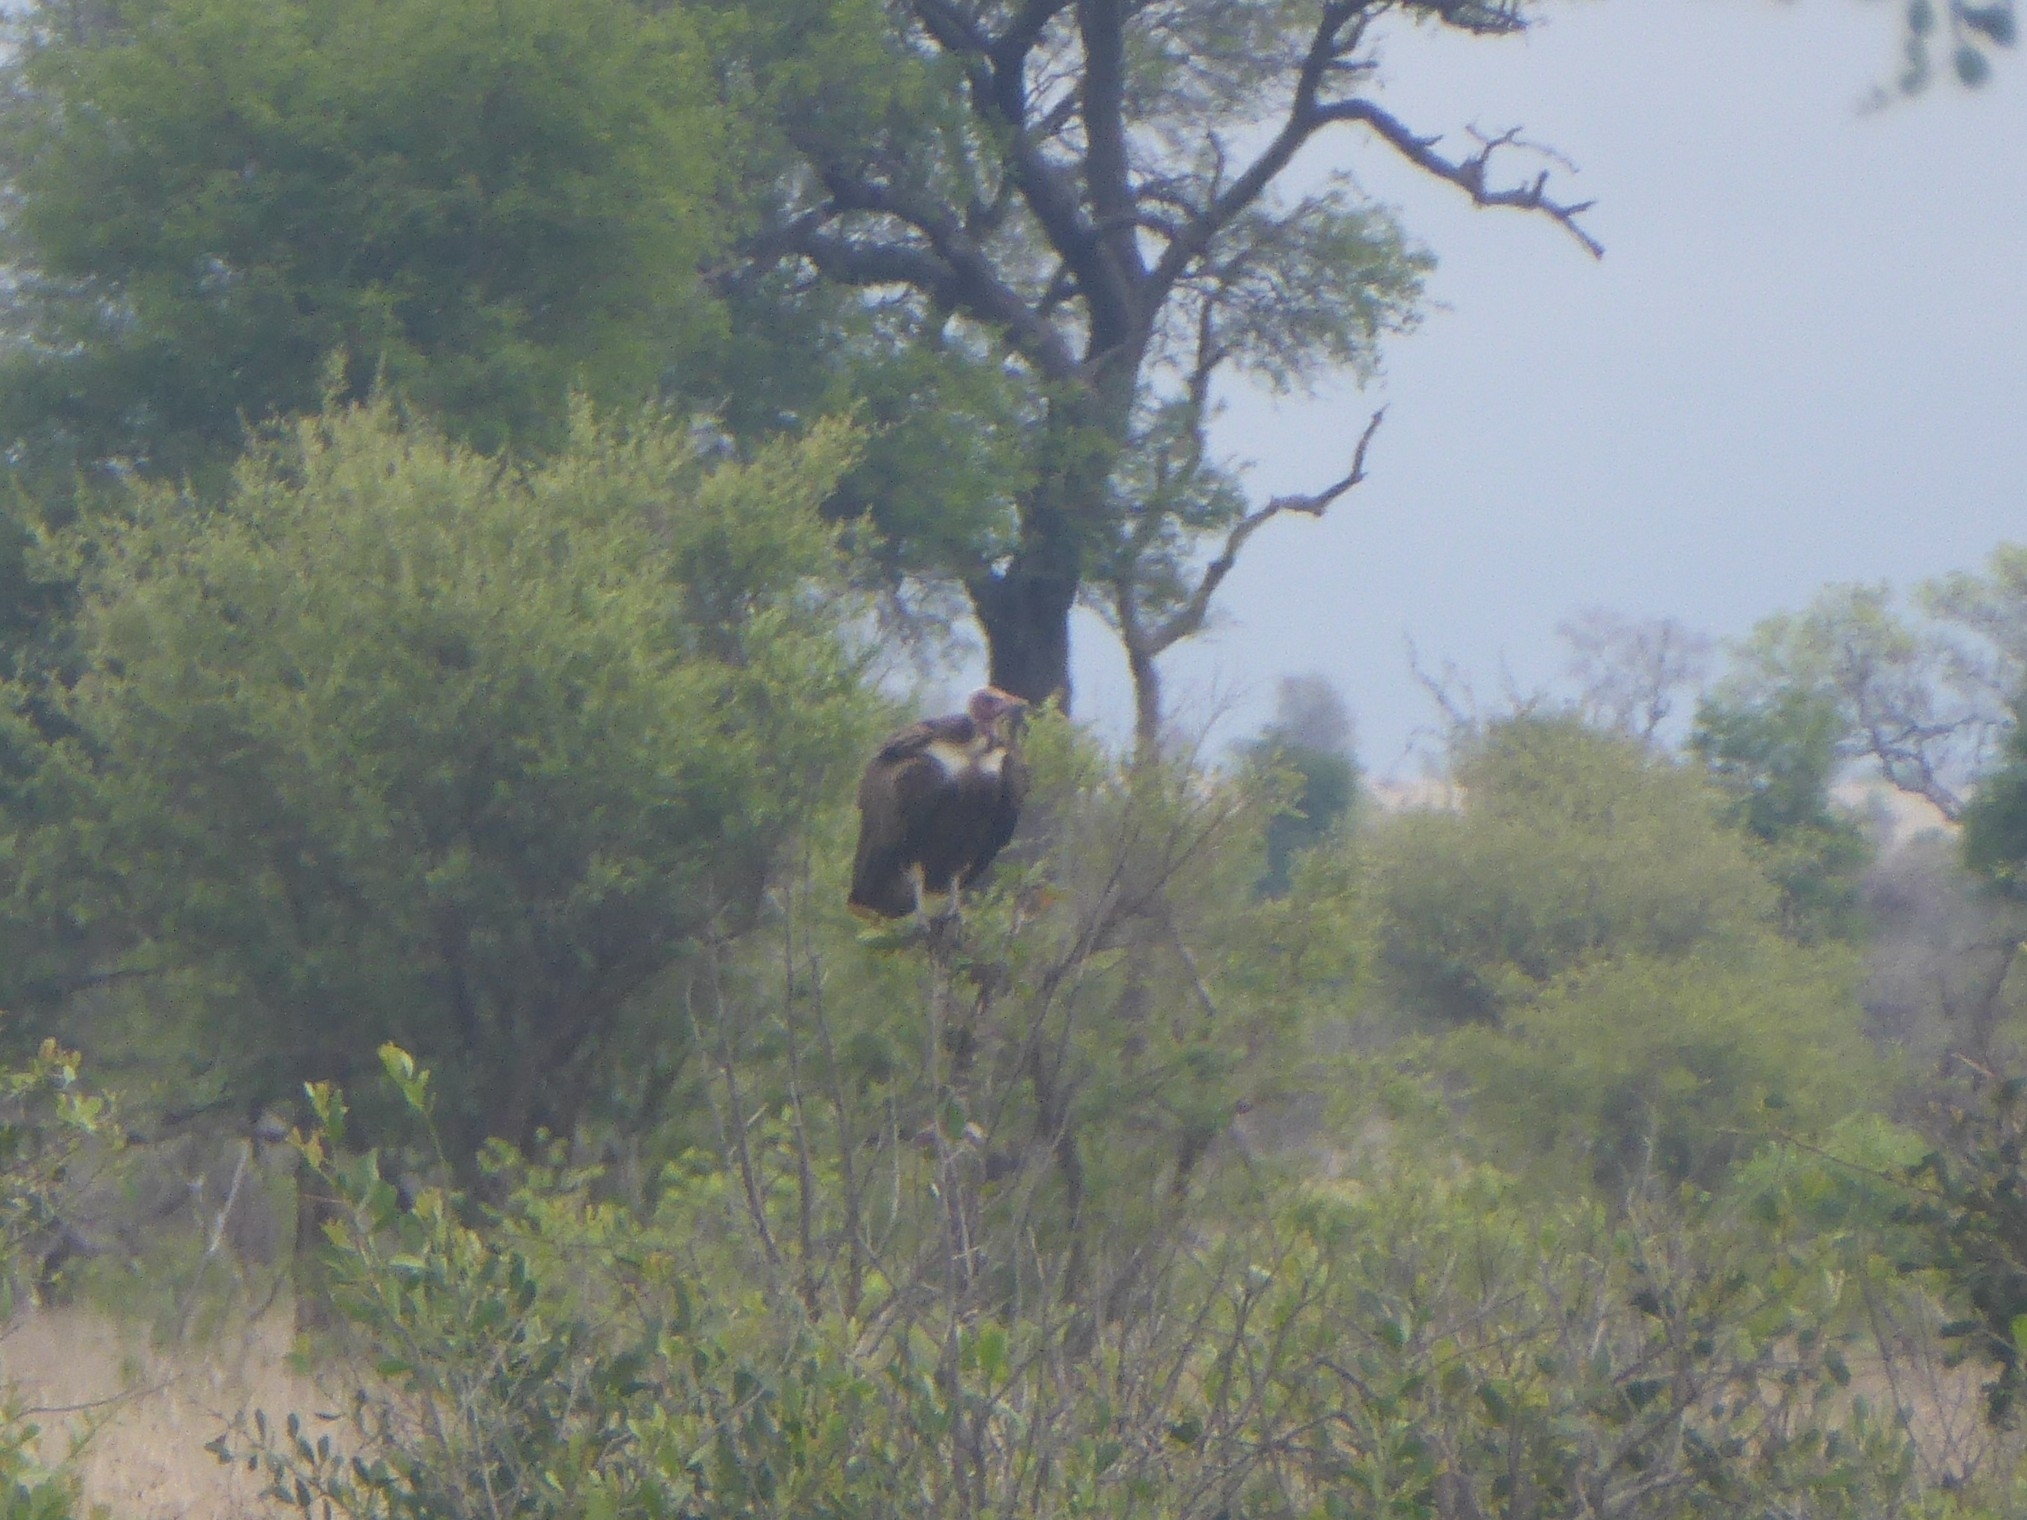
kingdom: Animalia
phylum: Chordata
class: Aves
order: Accipitriformes
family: Accipitridae
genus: Necrosyrtes
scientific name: Necrosyrtes monachus
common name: Hooded vulture
